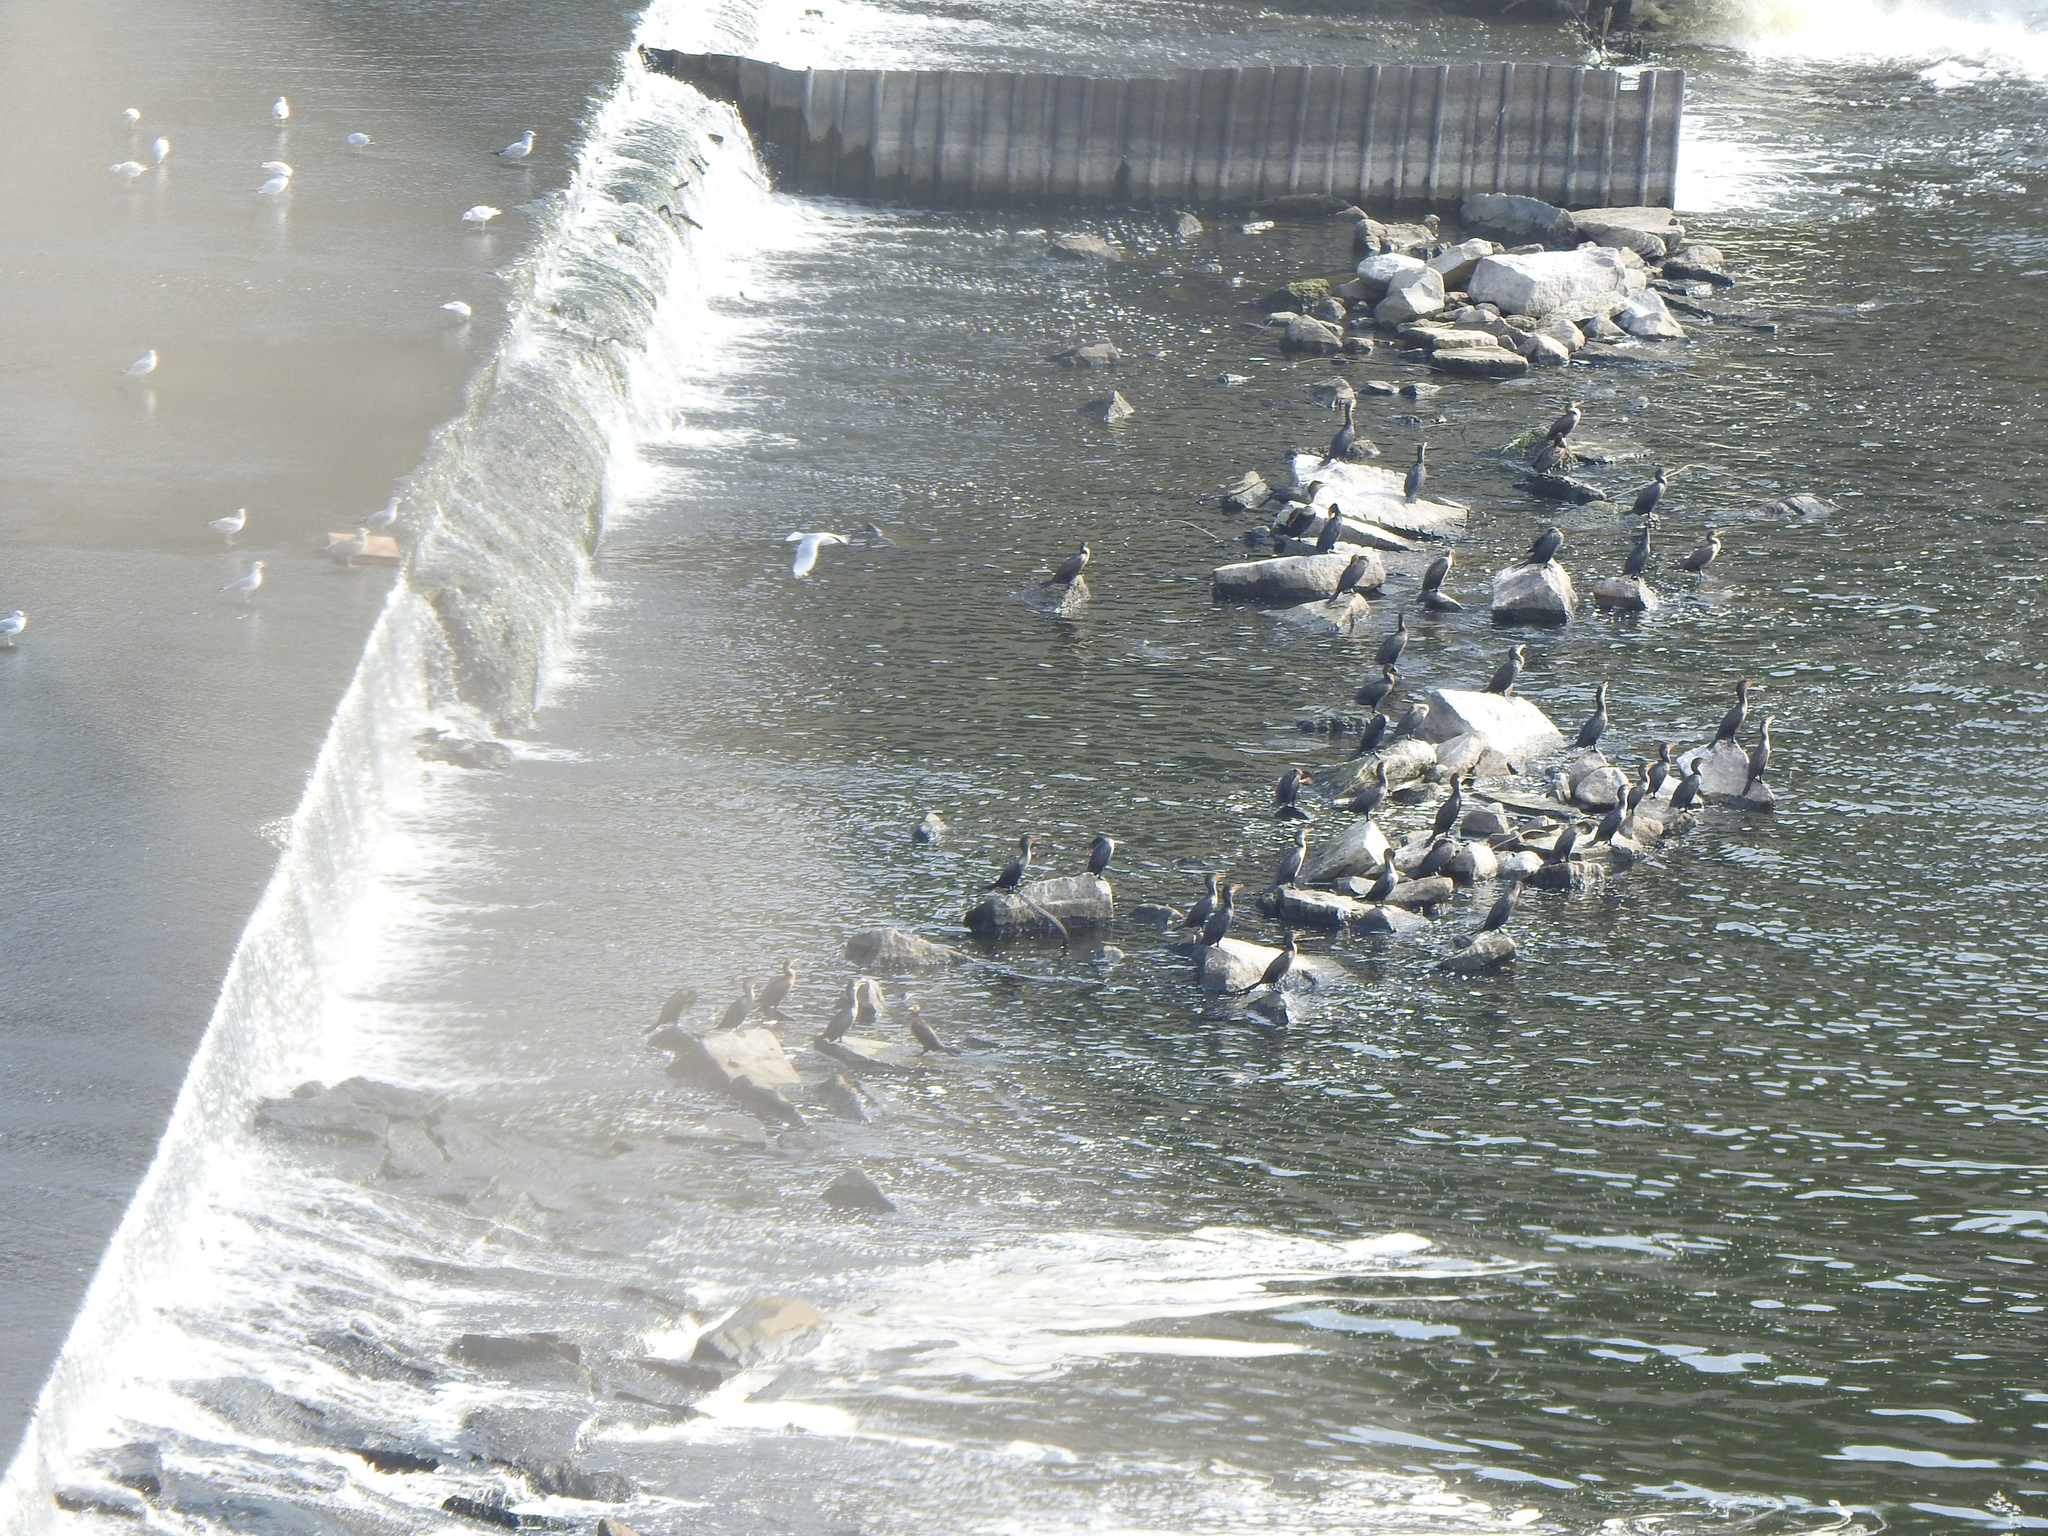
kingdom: Animalia
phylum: Chordata
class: Aves
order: Suliformes
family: Phalacrocoracidae
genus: Phalacrocorax
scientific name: Phalacrocorax auritus
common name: Double-crested cormorant
